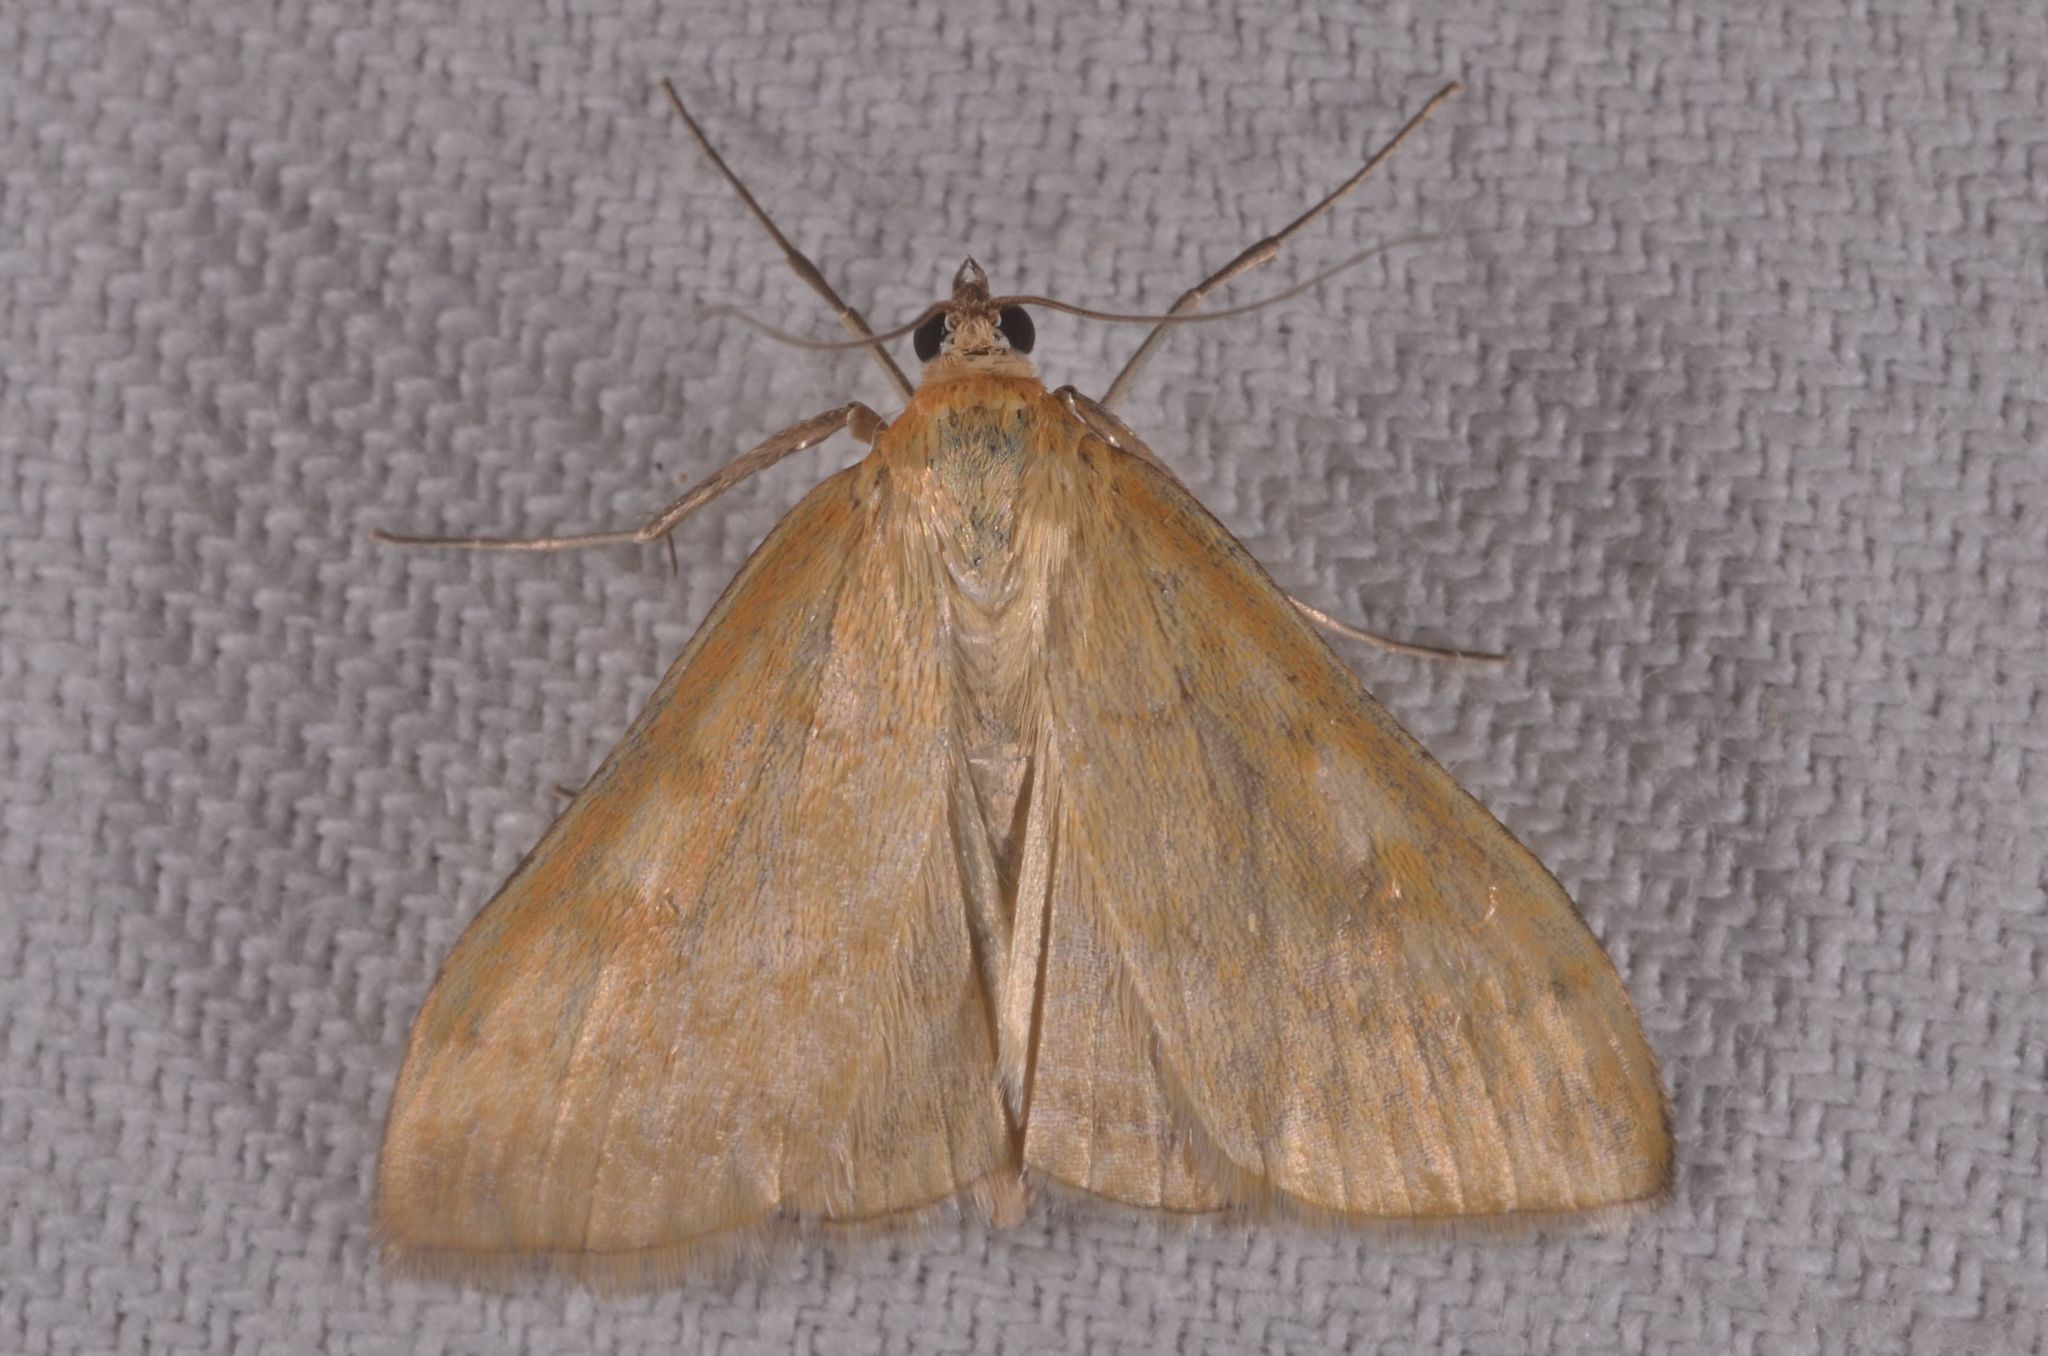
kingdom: Animalia
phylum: Arthropoda
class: Insecta
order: Lepidoptera
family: Crambidae
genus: Sitochroa
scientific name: Sitochroa verticalis
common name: Lesser pearl
